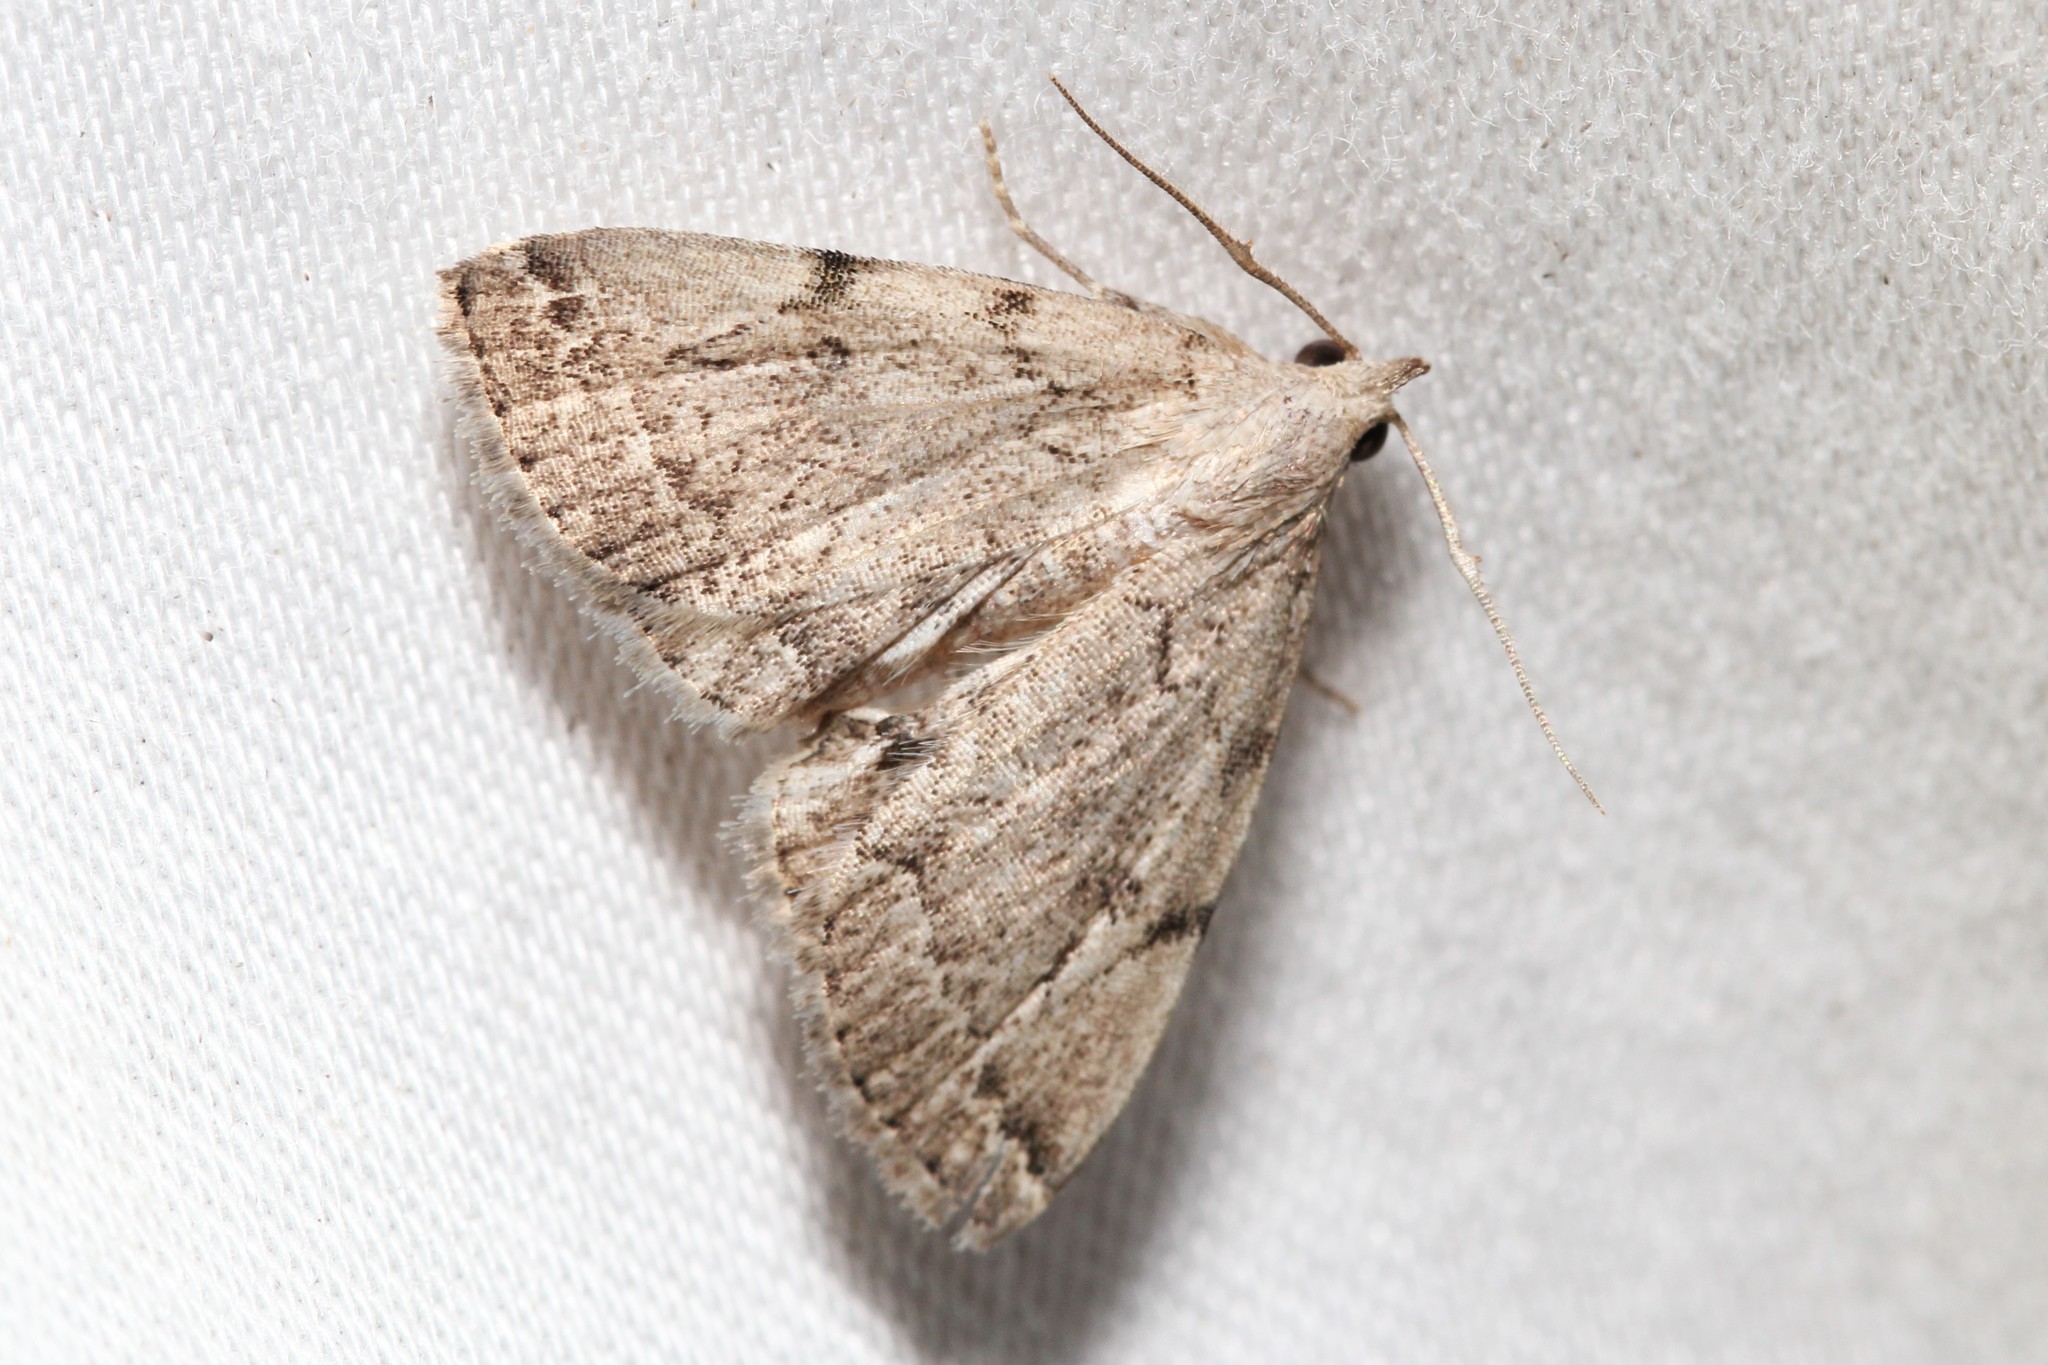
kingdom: Animalia
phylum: Arthropoda
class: Insecta
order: Lepidoptera
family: Erebidae
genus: Zanclognatha
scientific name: Zanclognatha theralis
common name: Flagged fan-foot
